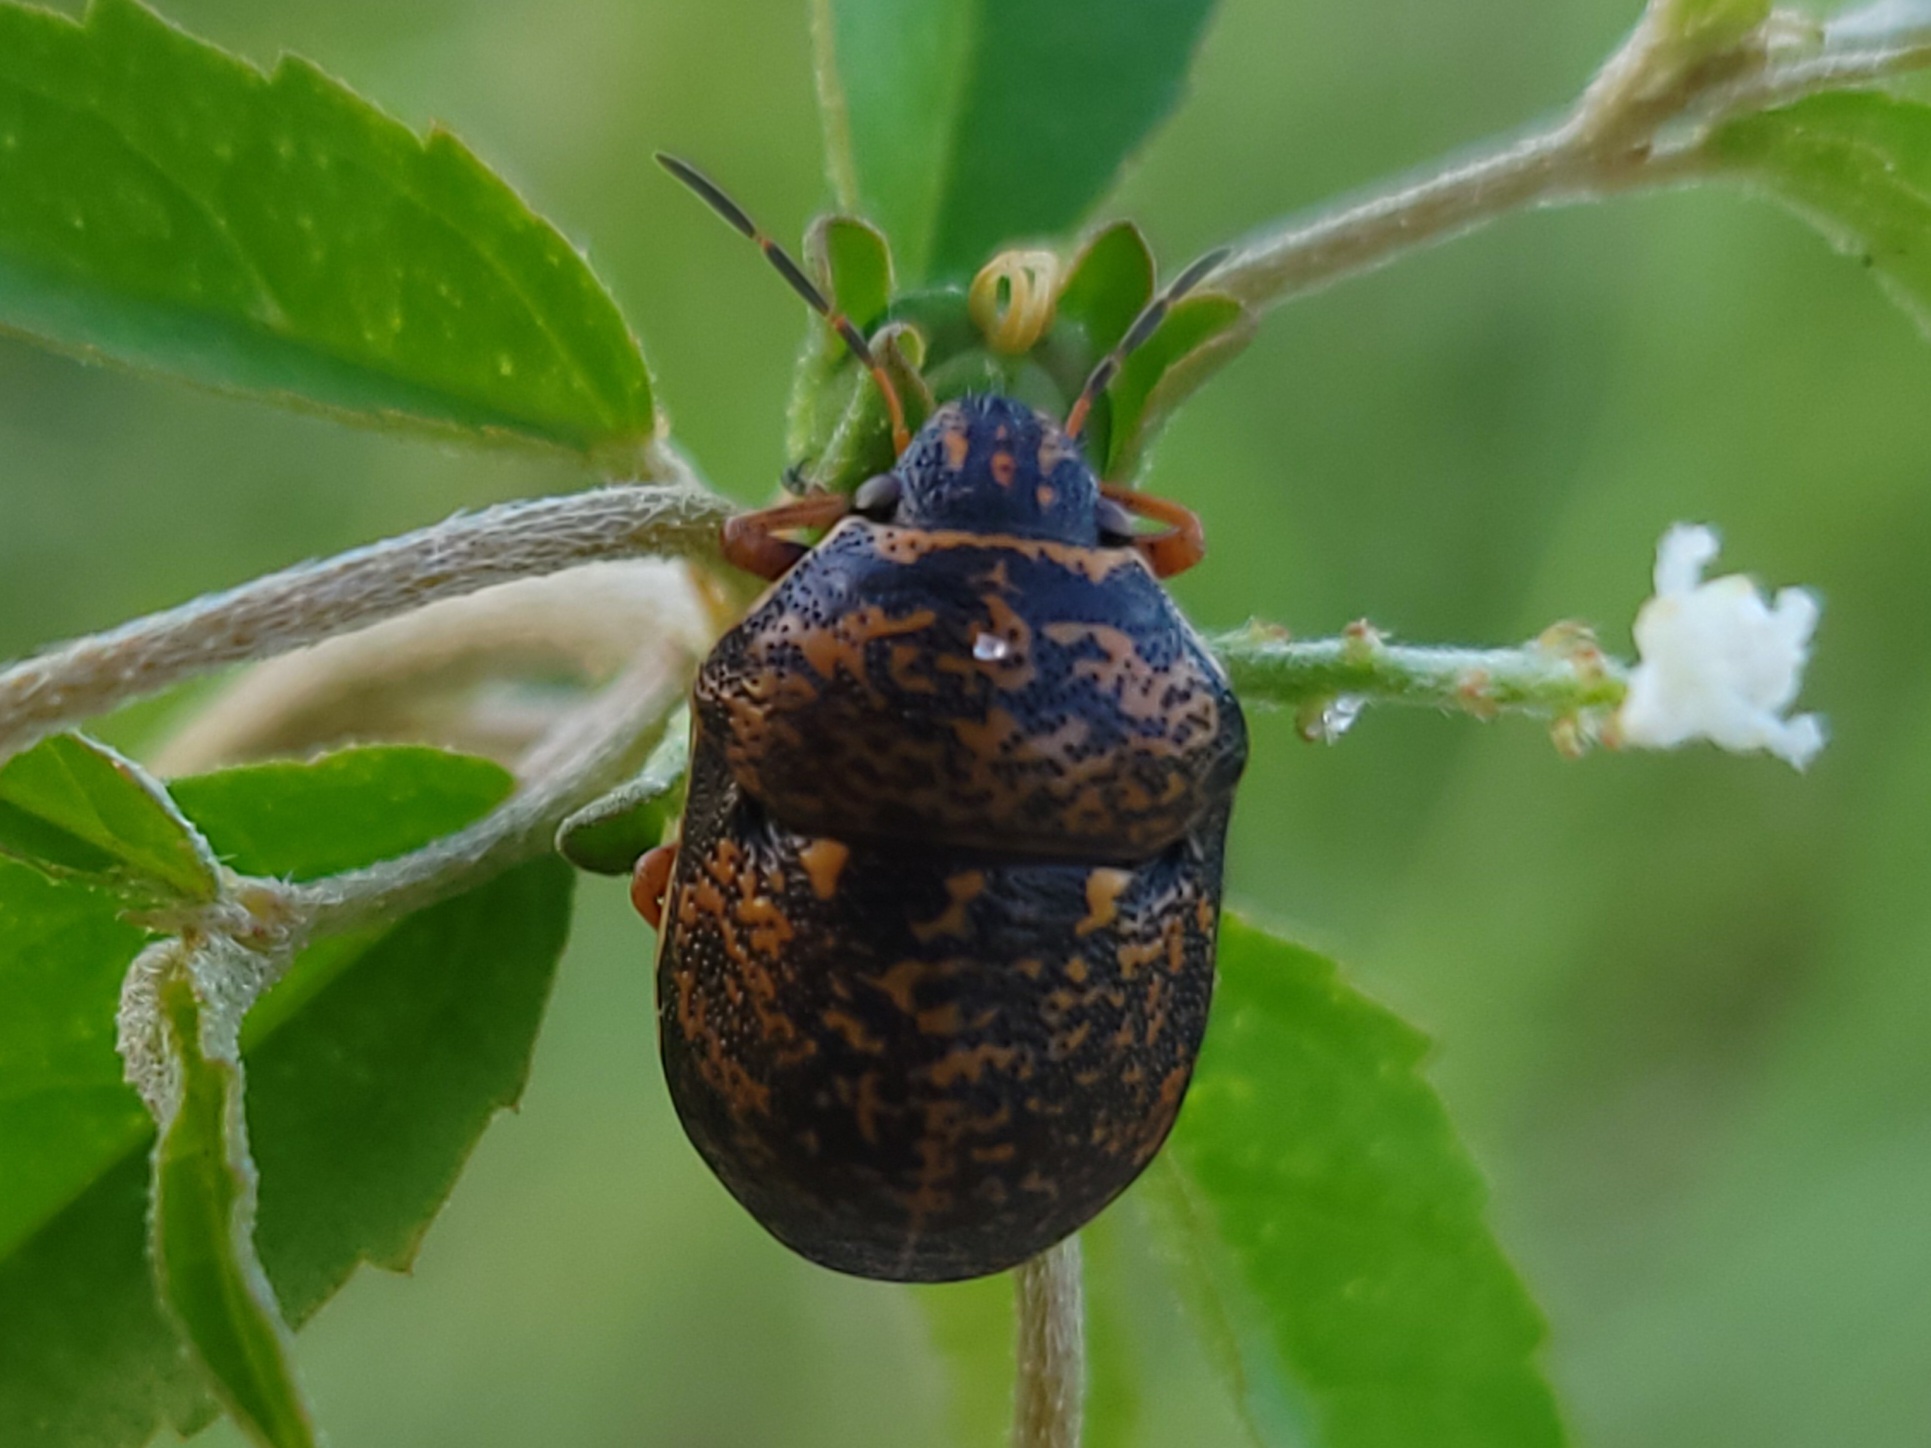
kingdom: Animalia
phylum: Arthropoda
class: Insecta
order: Hemiptera
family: Scutelleridae
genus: Orsilochides
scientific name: Orsilochides guttata
